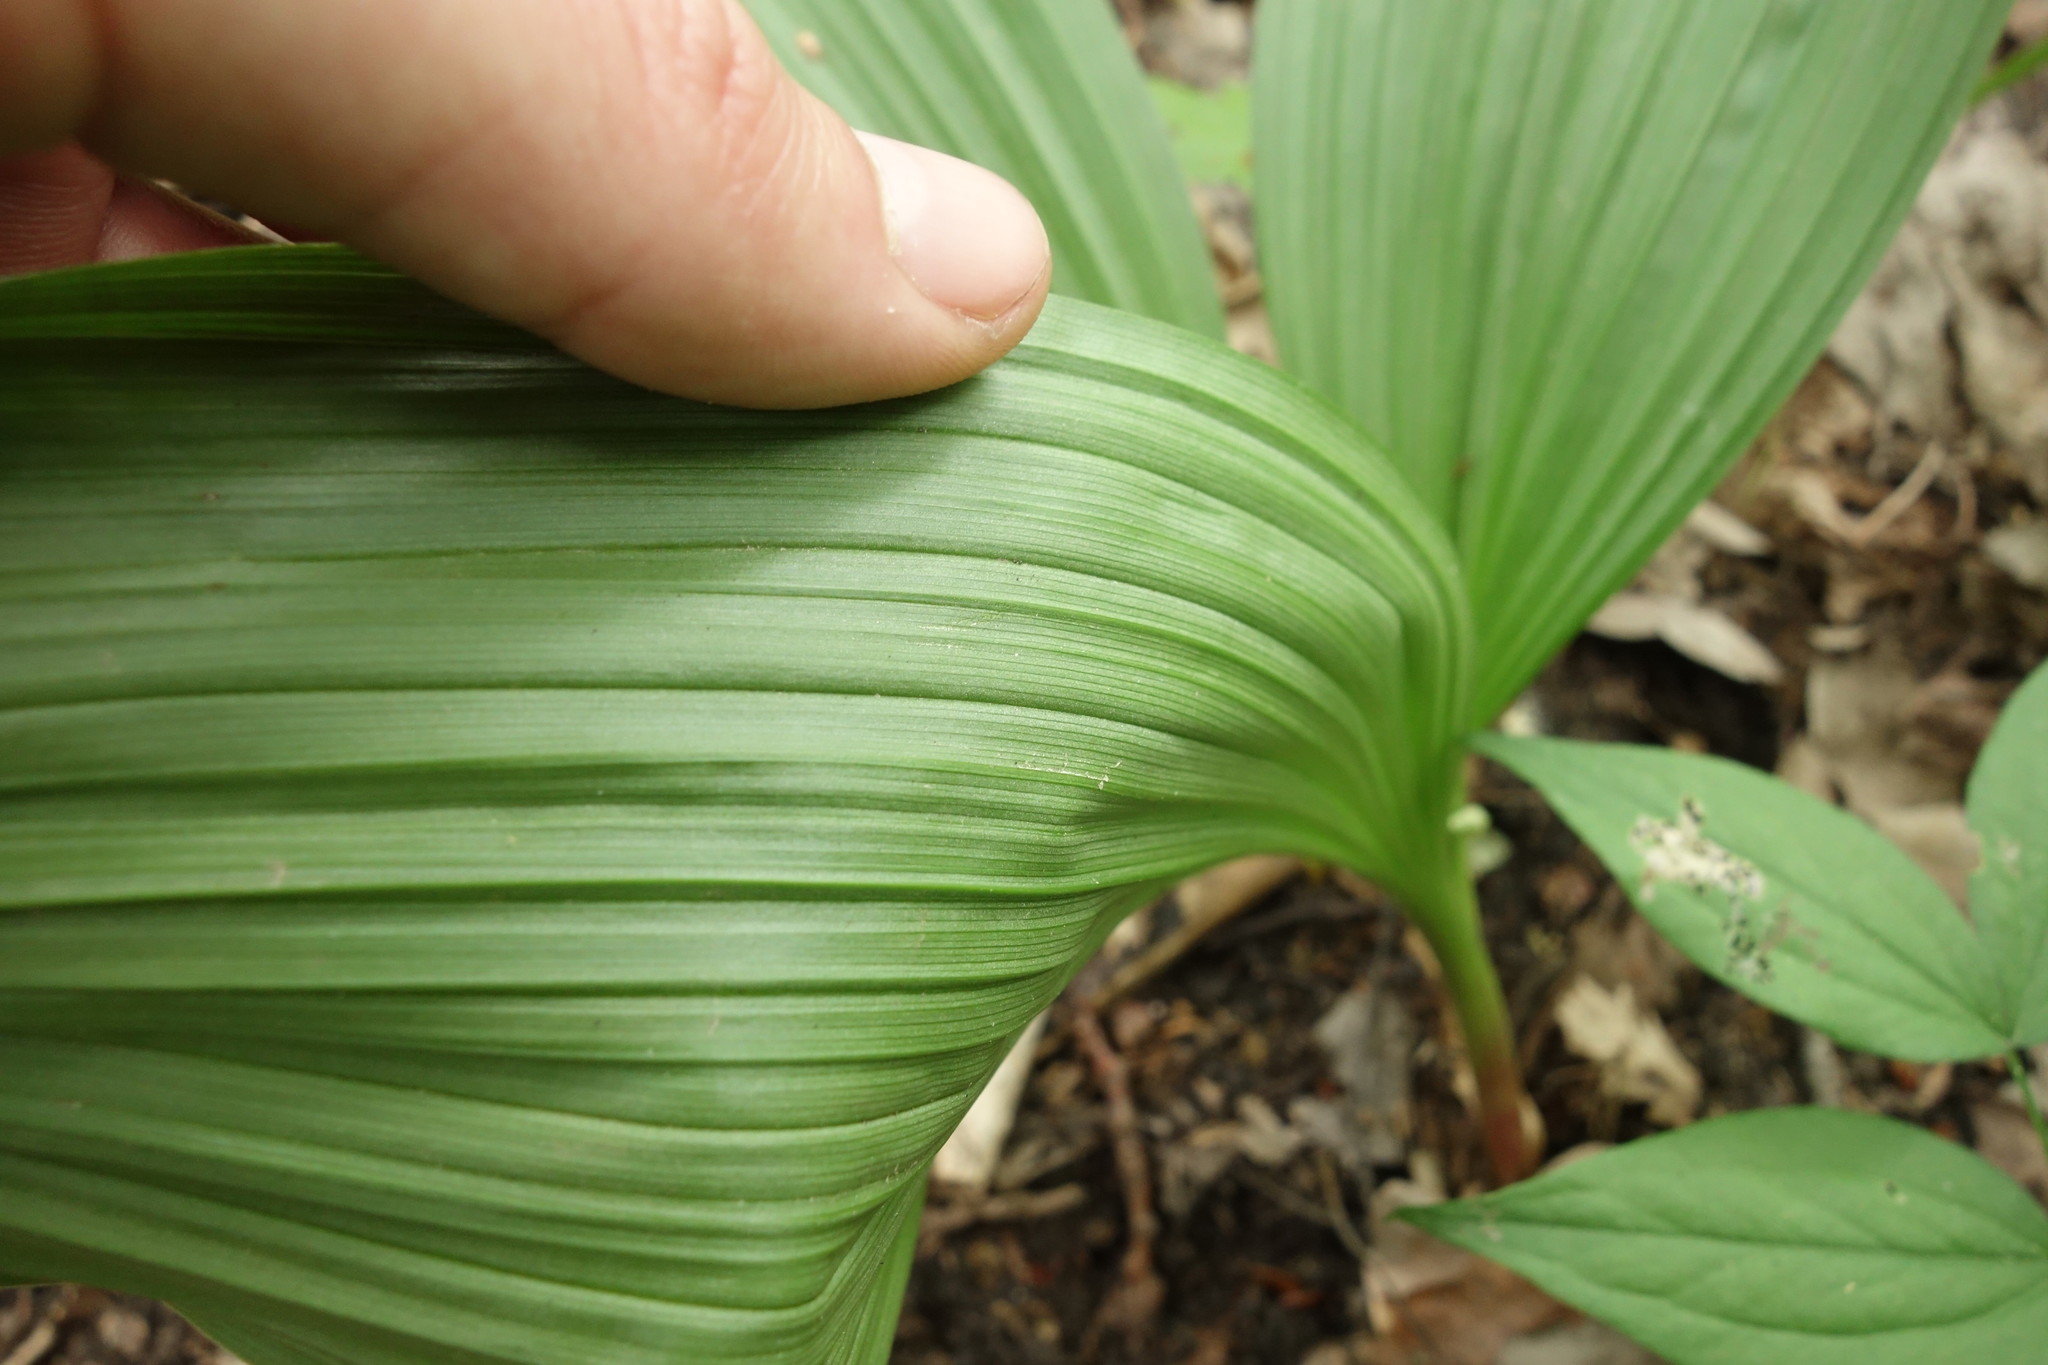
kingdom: Plantae
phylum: Tracheophyta
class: Liliopsida
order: Liliales
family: Melanthiaceae
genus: Veratrum
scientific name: Veratrum nigrum
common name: Black veratrum
